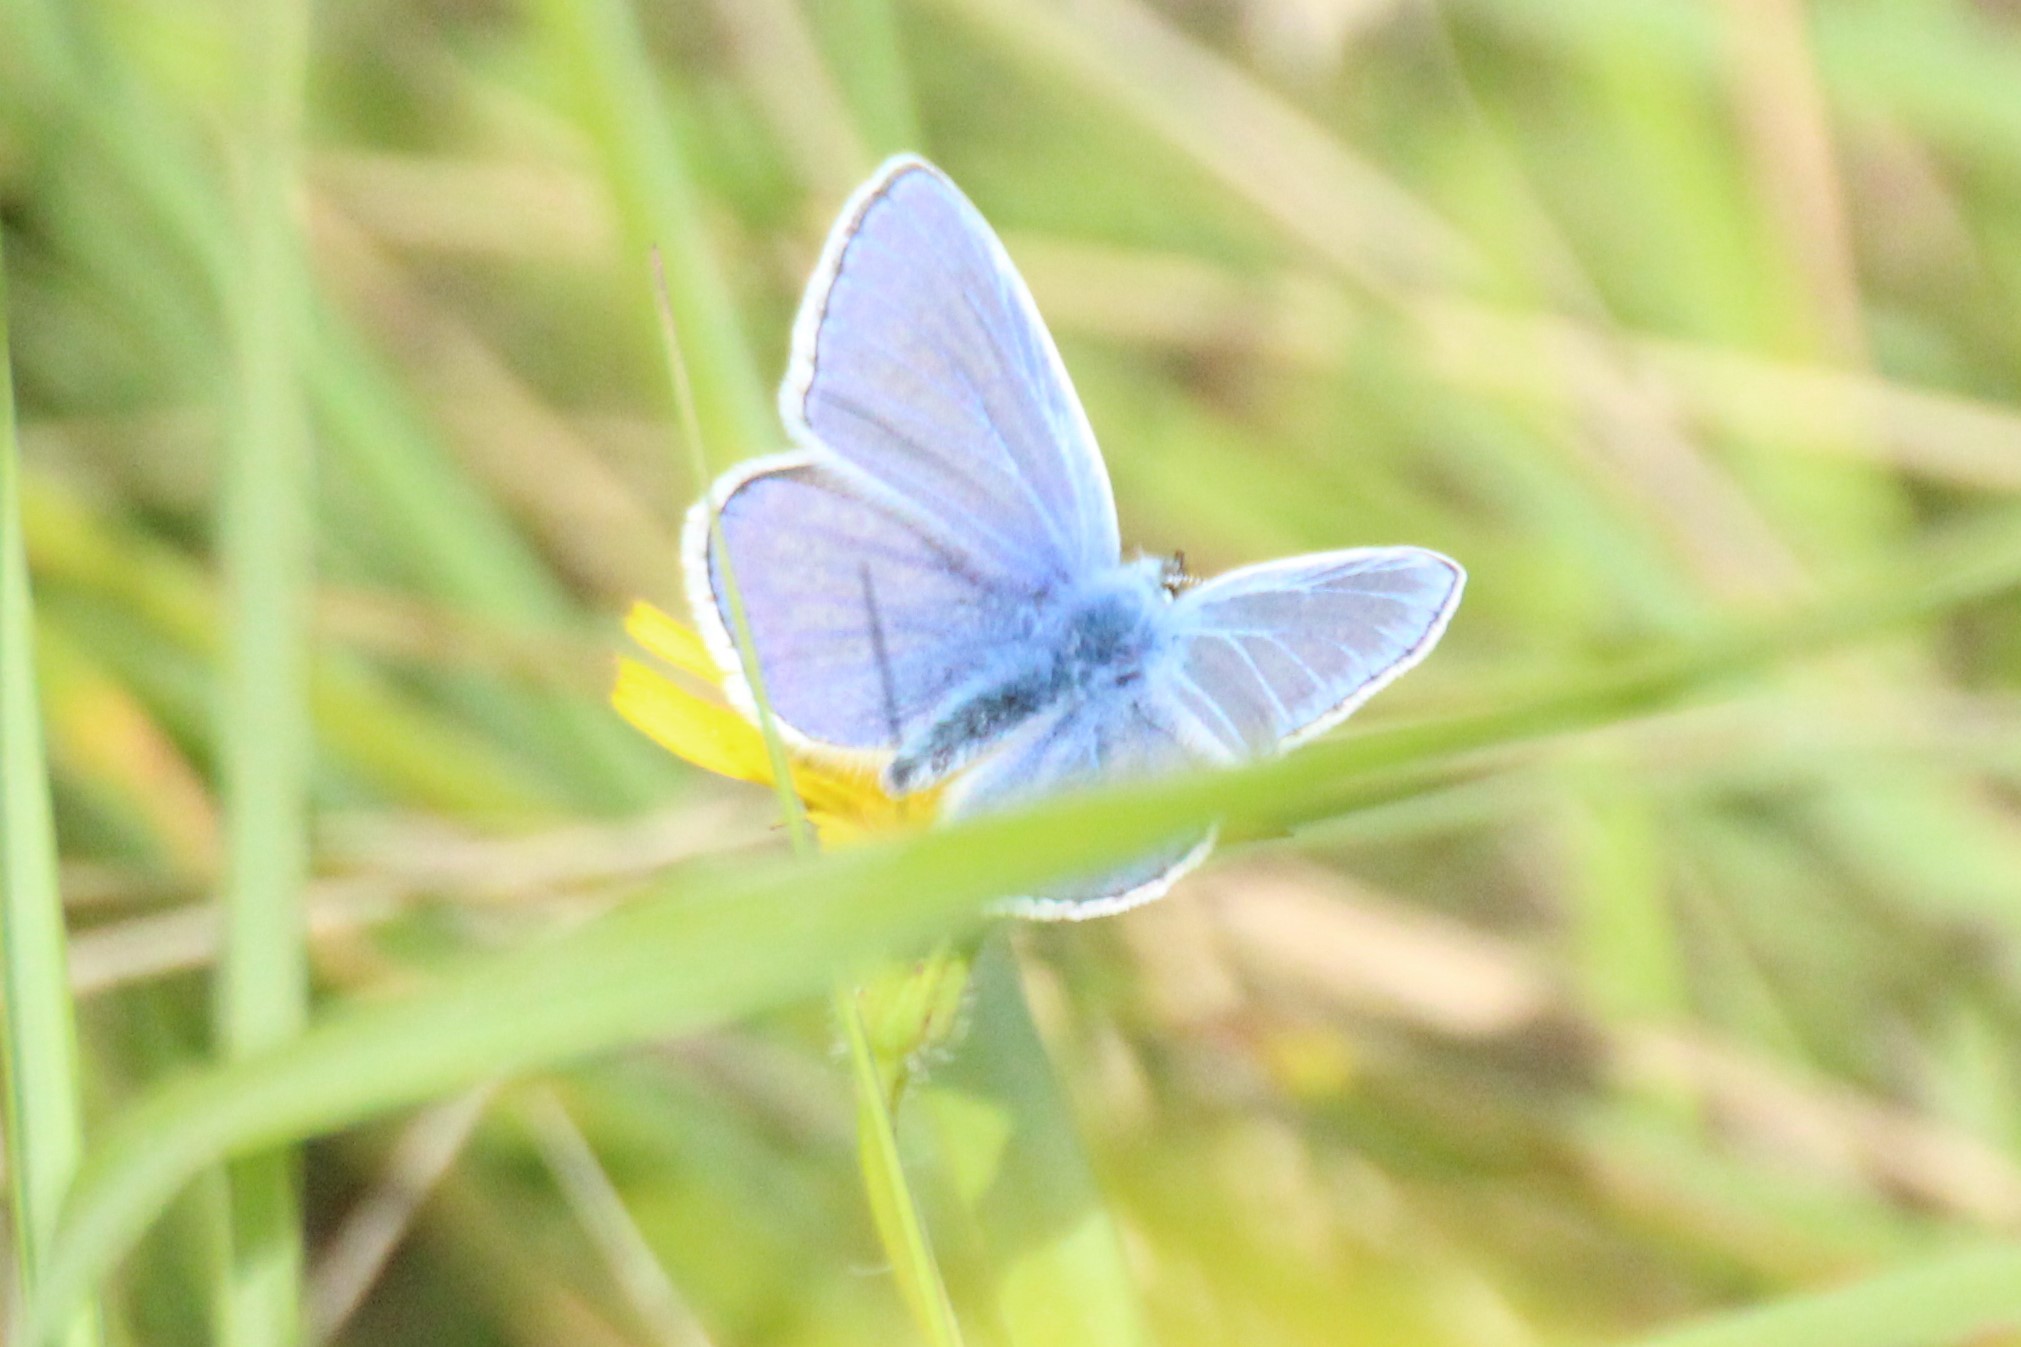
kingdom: Animalia
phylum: Arthropoda
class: Insecta
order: Lepidoptera
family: Lycaenidae
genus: Polyommatus
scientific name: Polyommatus icarus
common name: Common blue
